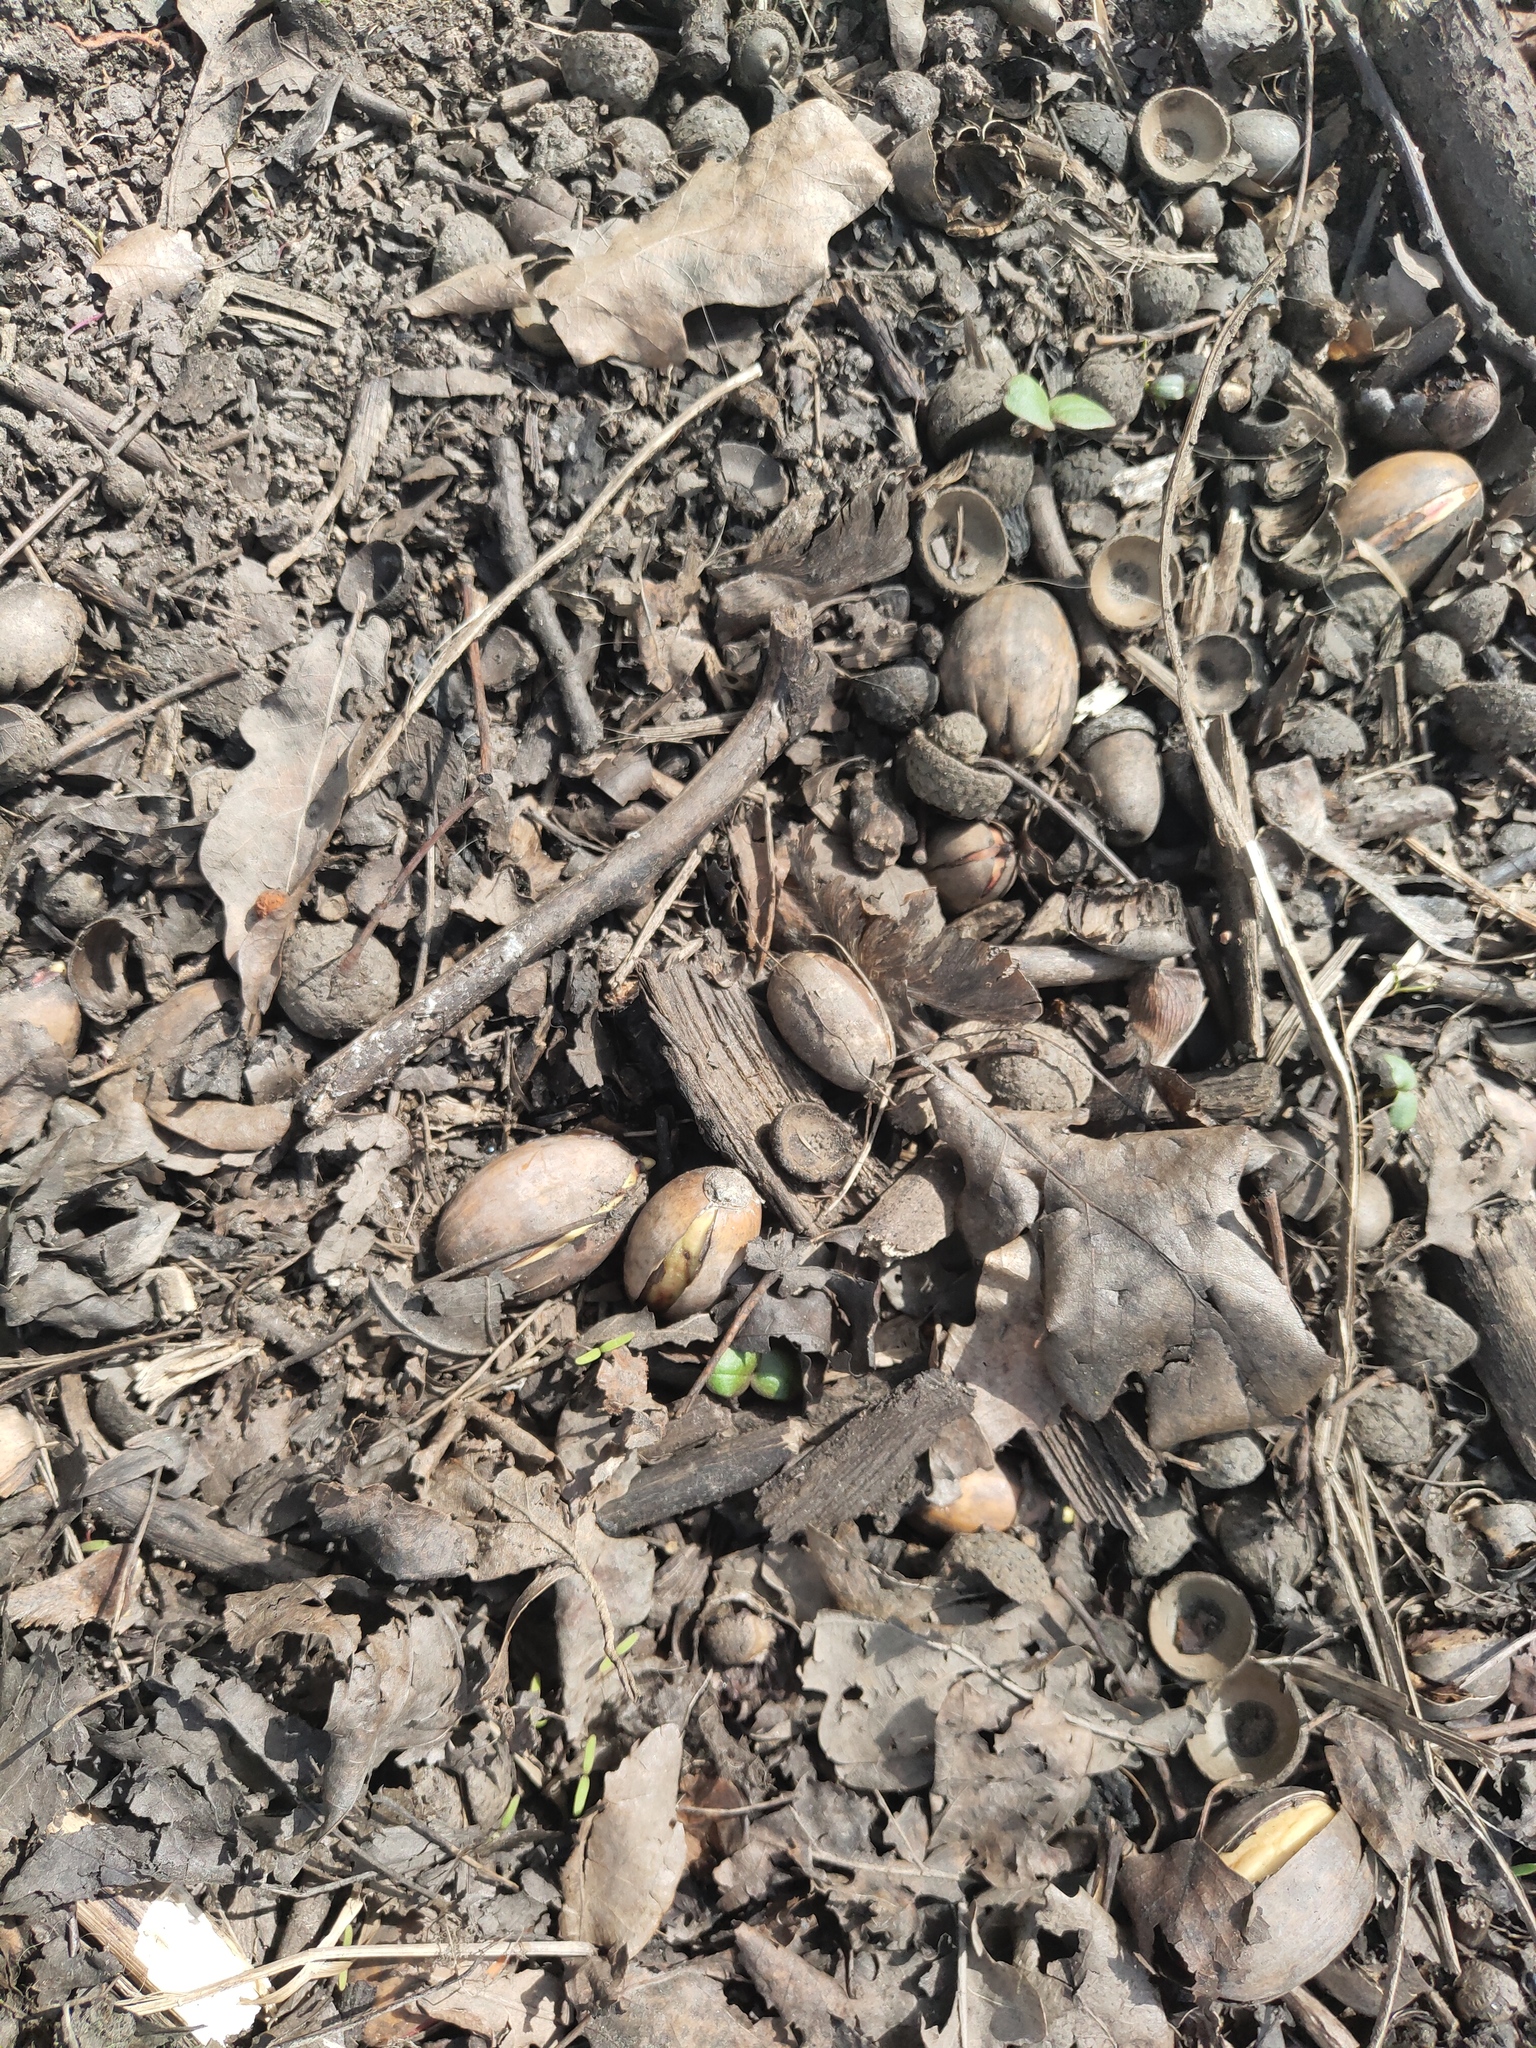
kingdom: Plantae
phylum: Tracheophyta
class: Magnoliopsida
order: Fagales
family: Fagaceae
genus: Quercus
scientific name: Quercus robur
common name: Pedunculate oak
